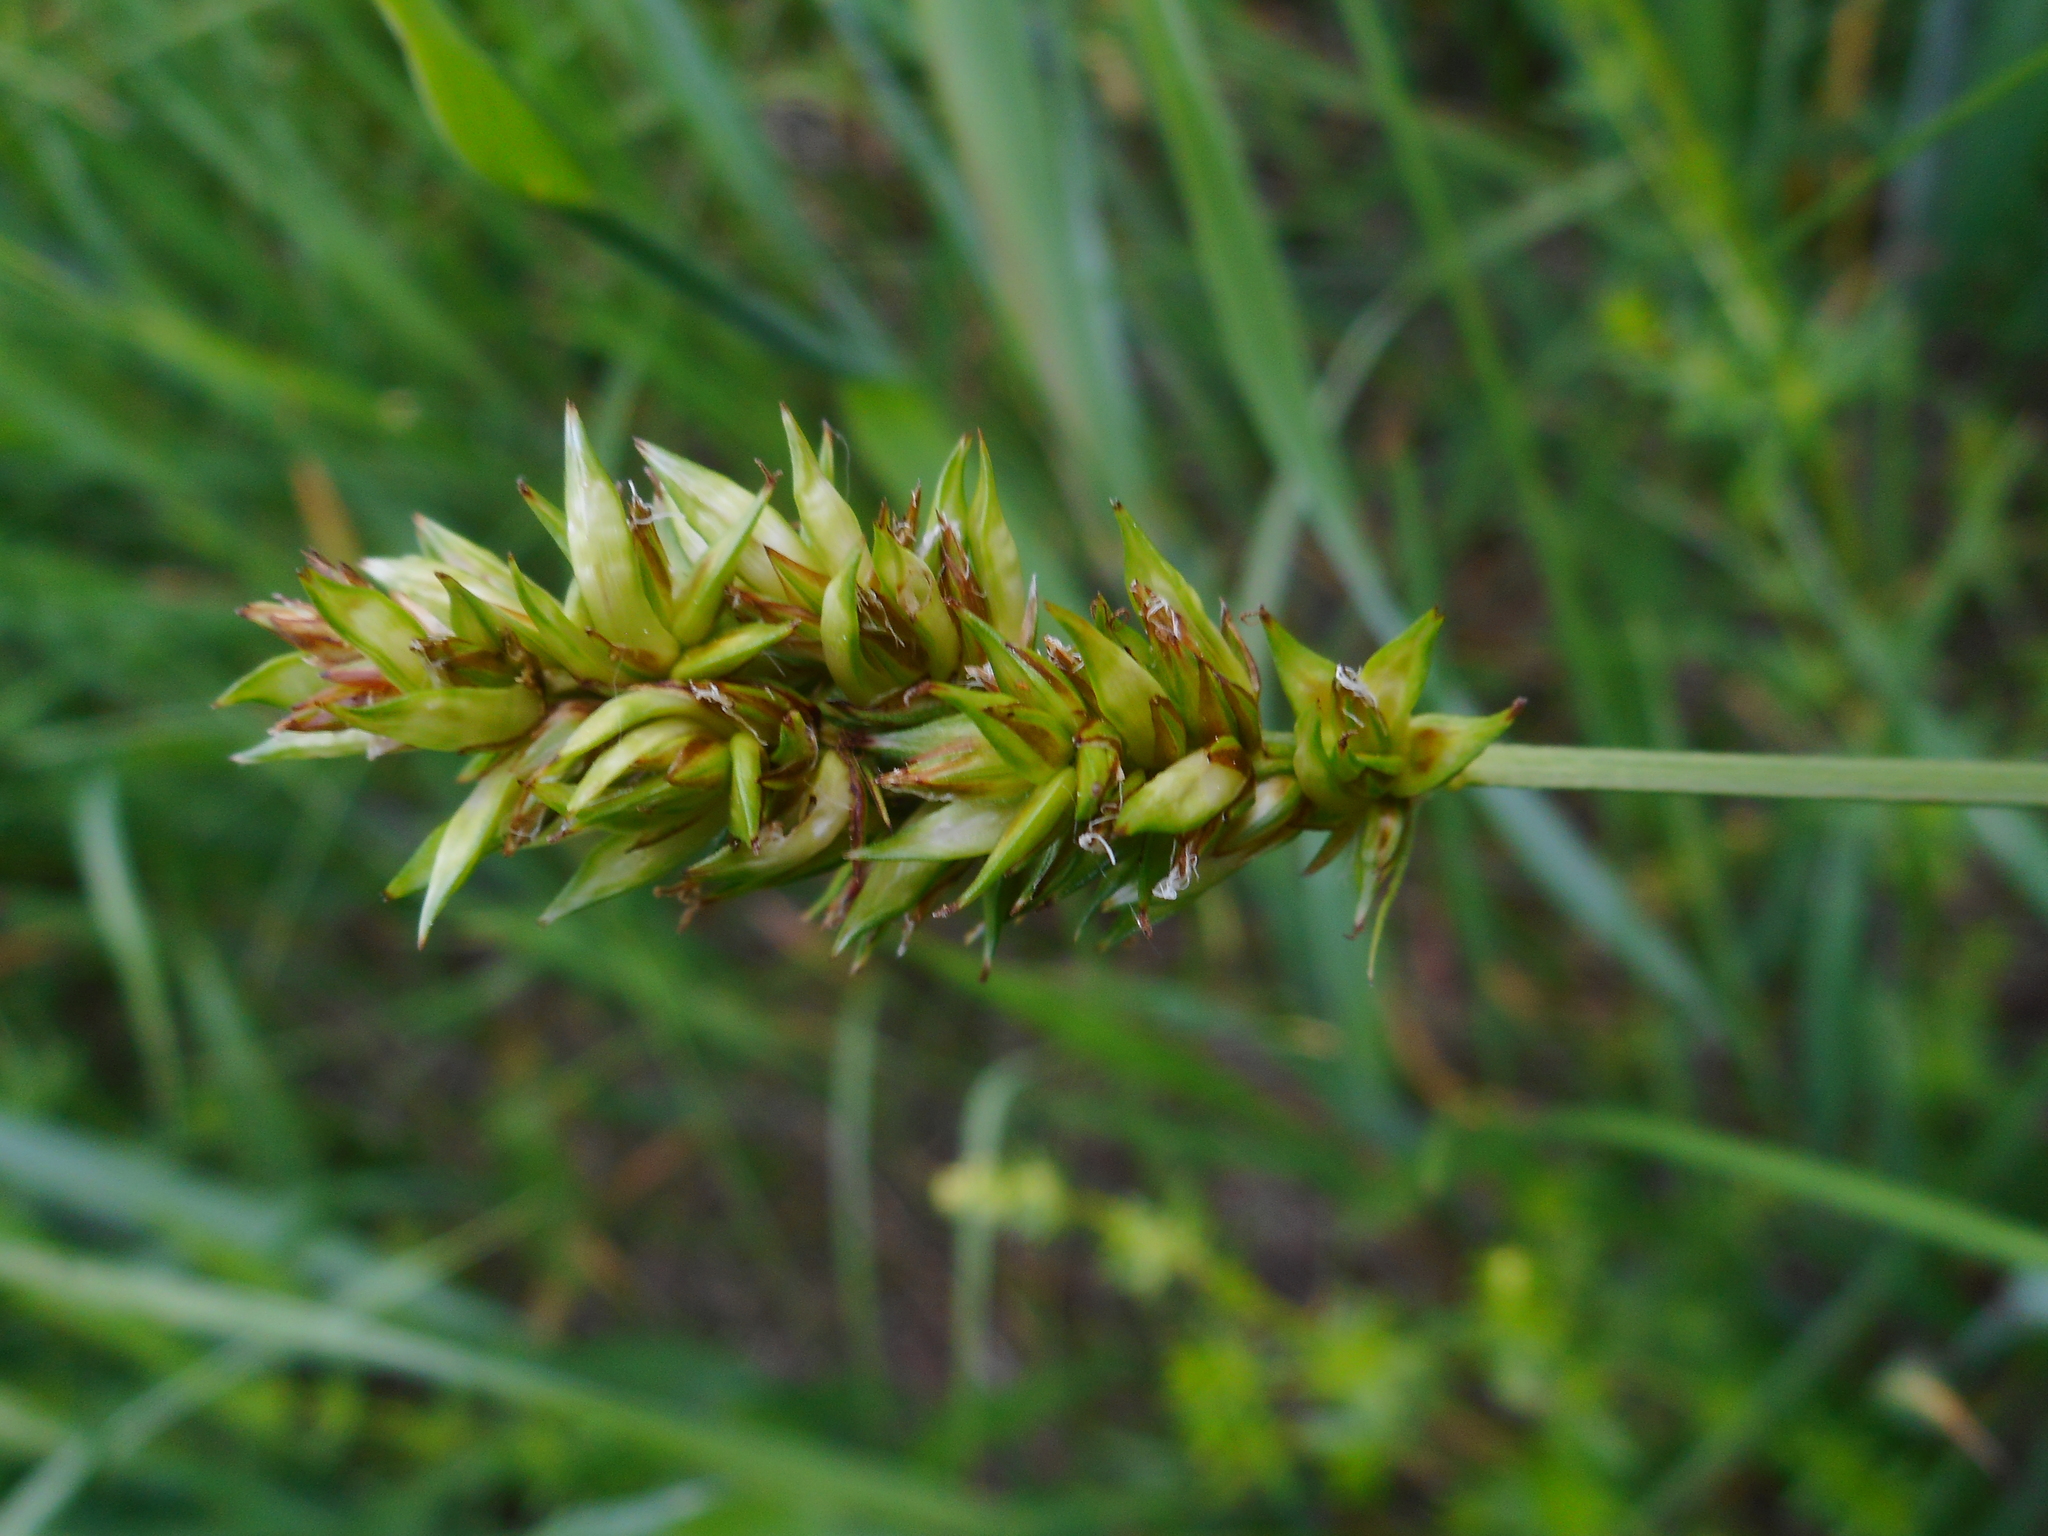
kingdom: Plantae
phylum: Tracheophyta
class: Liliopsida
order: Poales
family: Cyperaceae
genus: Carex
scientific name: Carex spicata
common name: Spiked sedge
